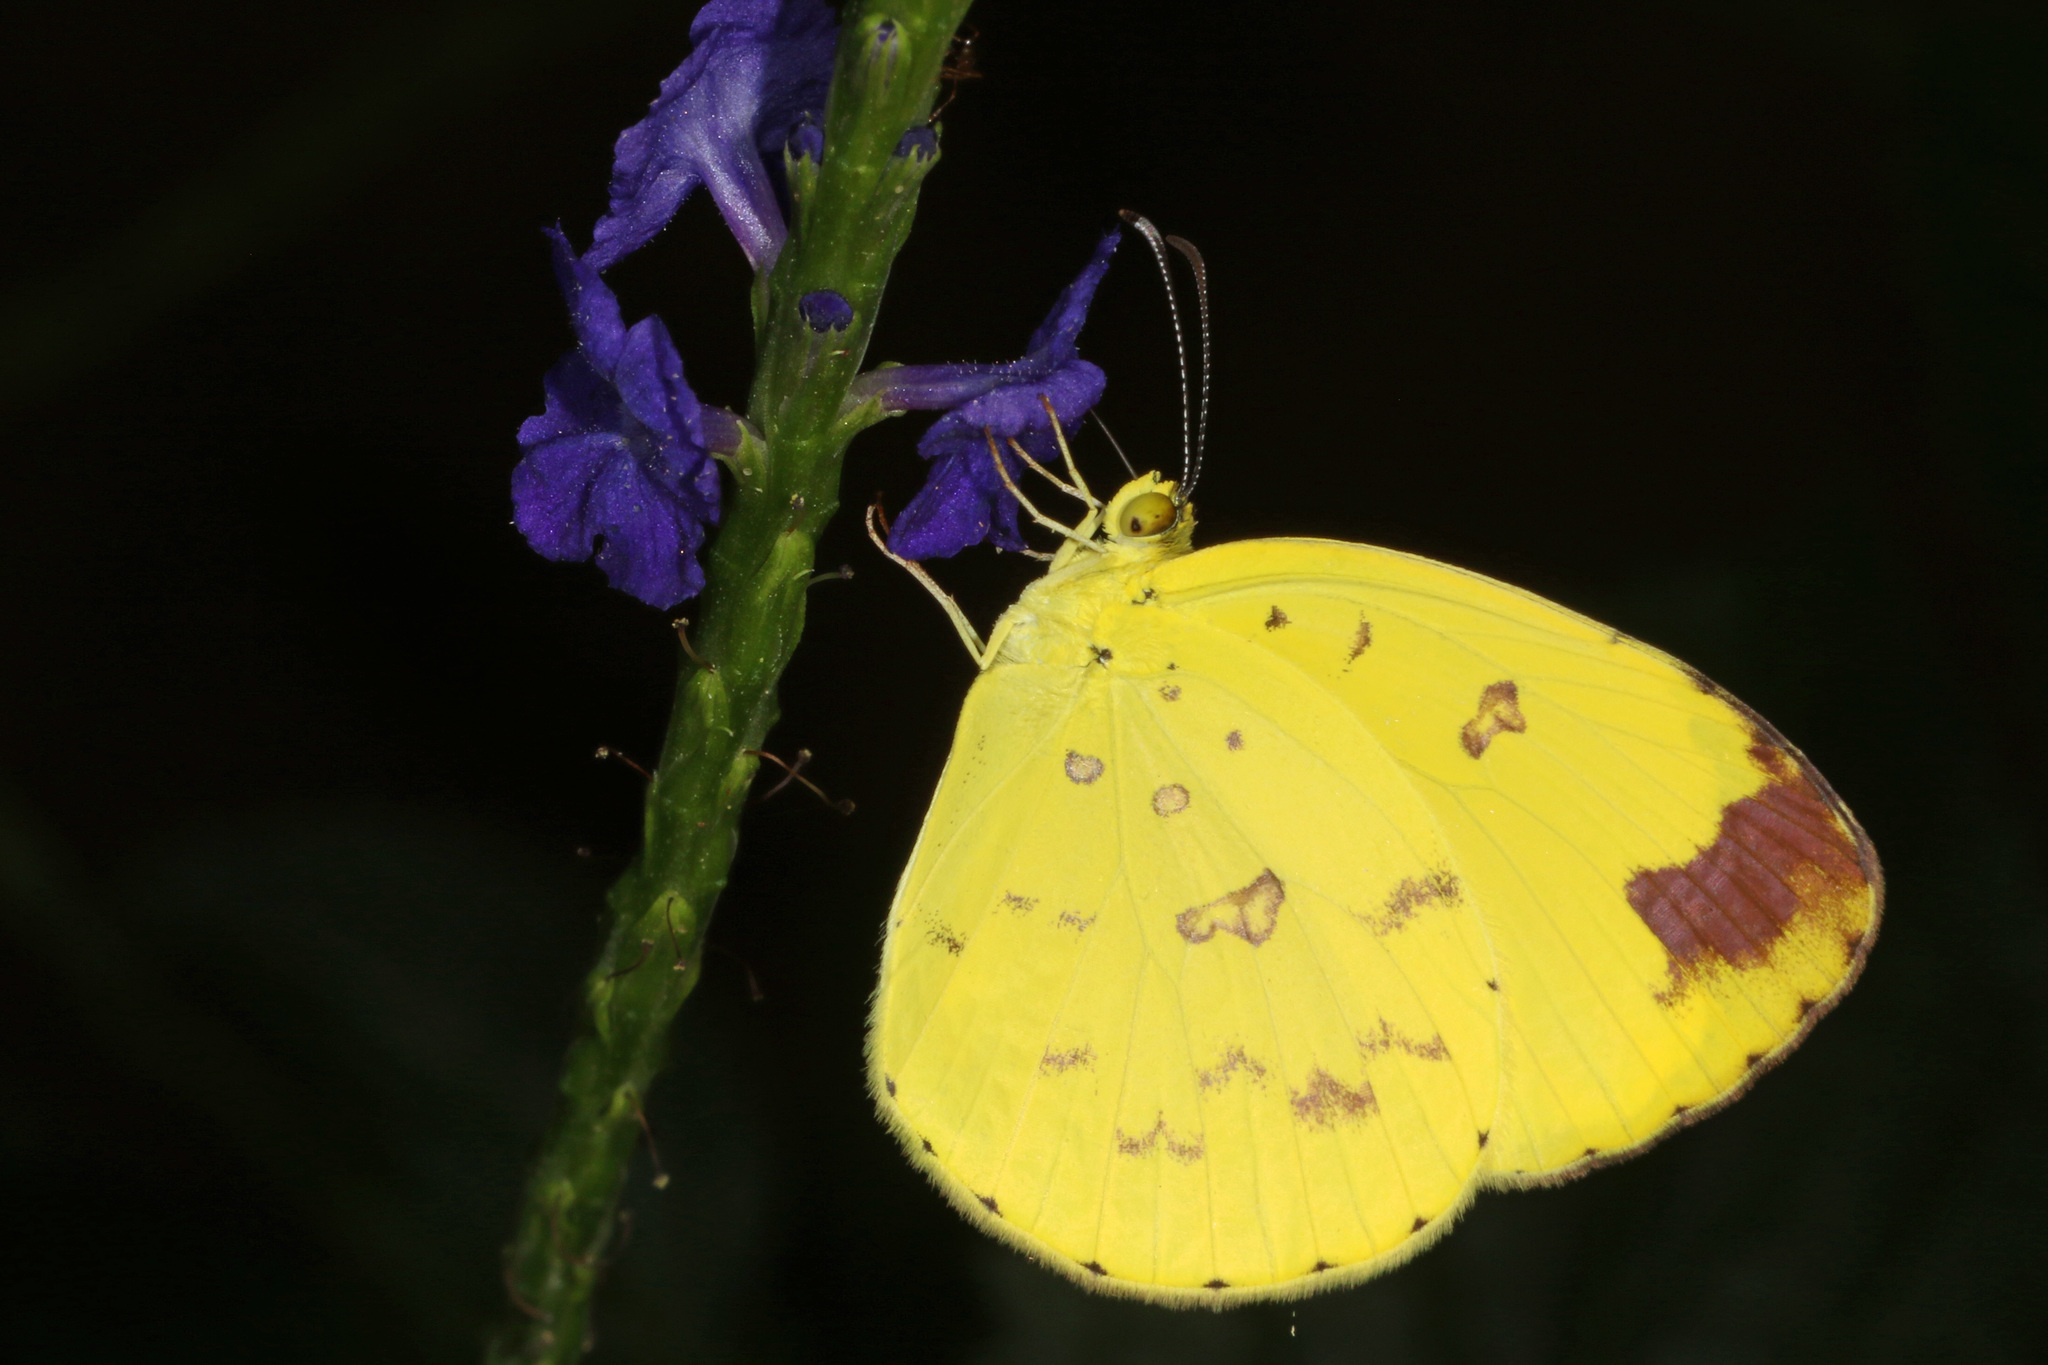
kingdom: Animalia
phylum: Arthropoda
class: Insecta
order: Lepidoptera
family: Pieridae
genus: Eurema
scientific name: Eurema hecabe
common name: Pale grass yellow
